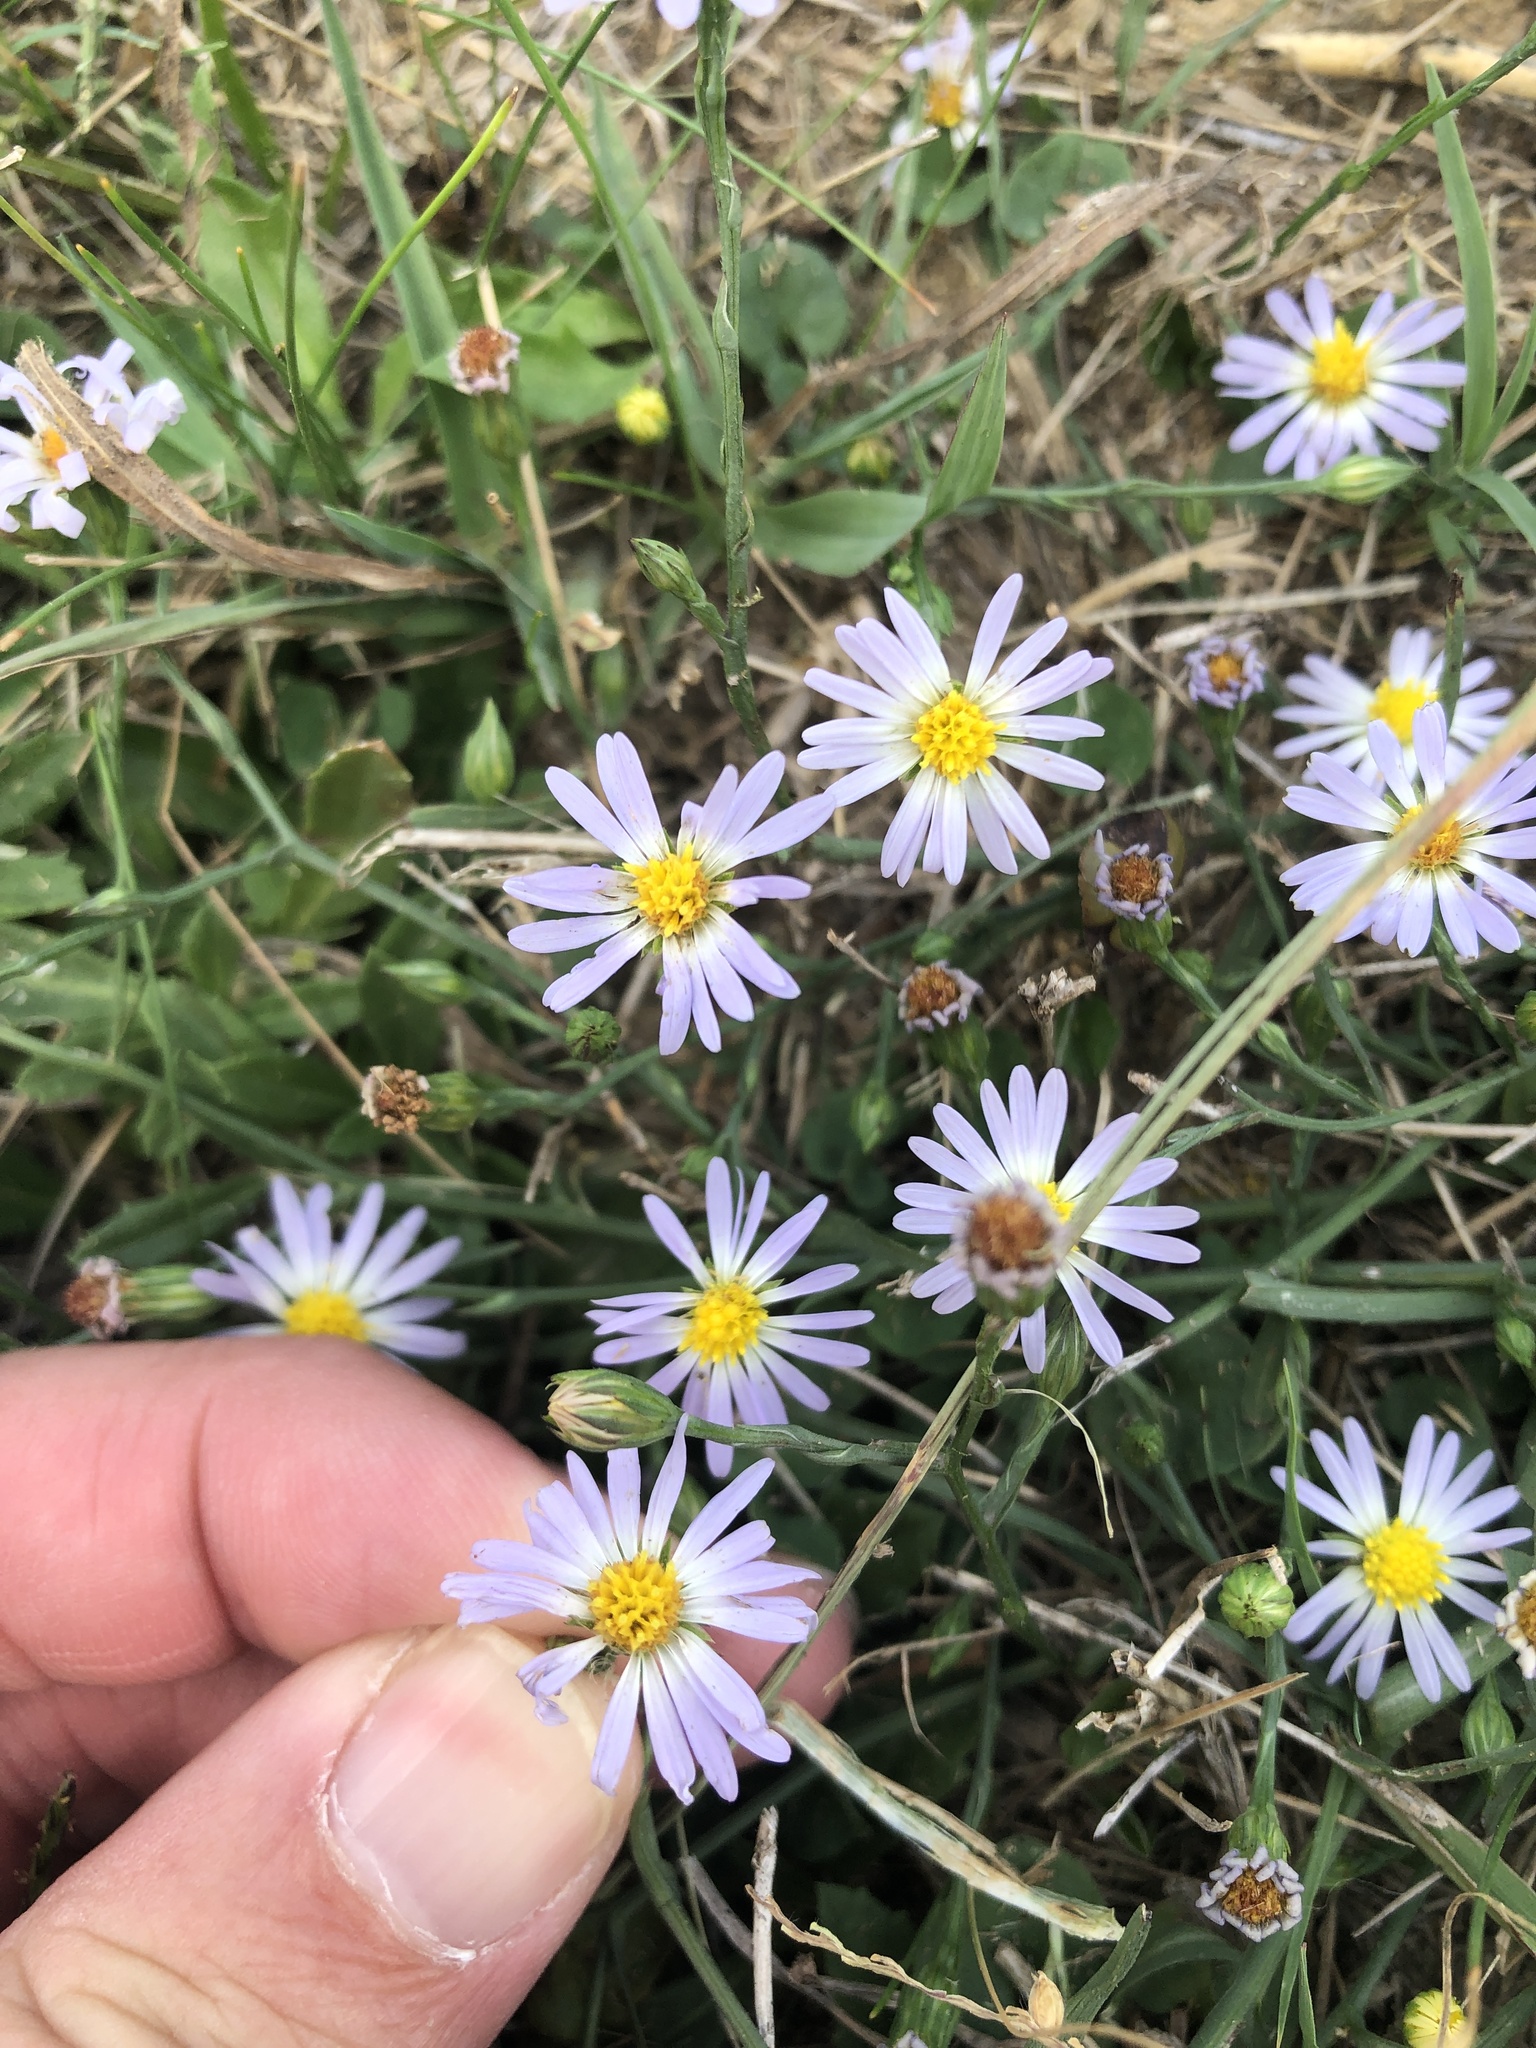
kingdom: Plantae
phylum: Tracheophyta
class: Magnoliopsida
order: Asterales
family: Asteraceae
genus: Symphyotrichum
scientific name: Symphyotrichum divaricatum
